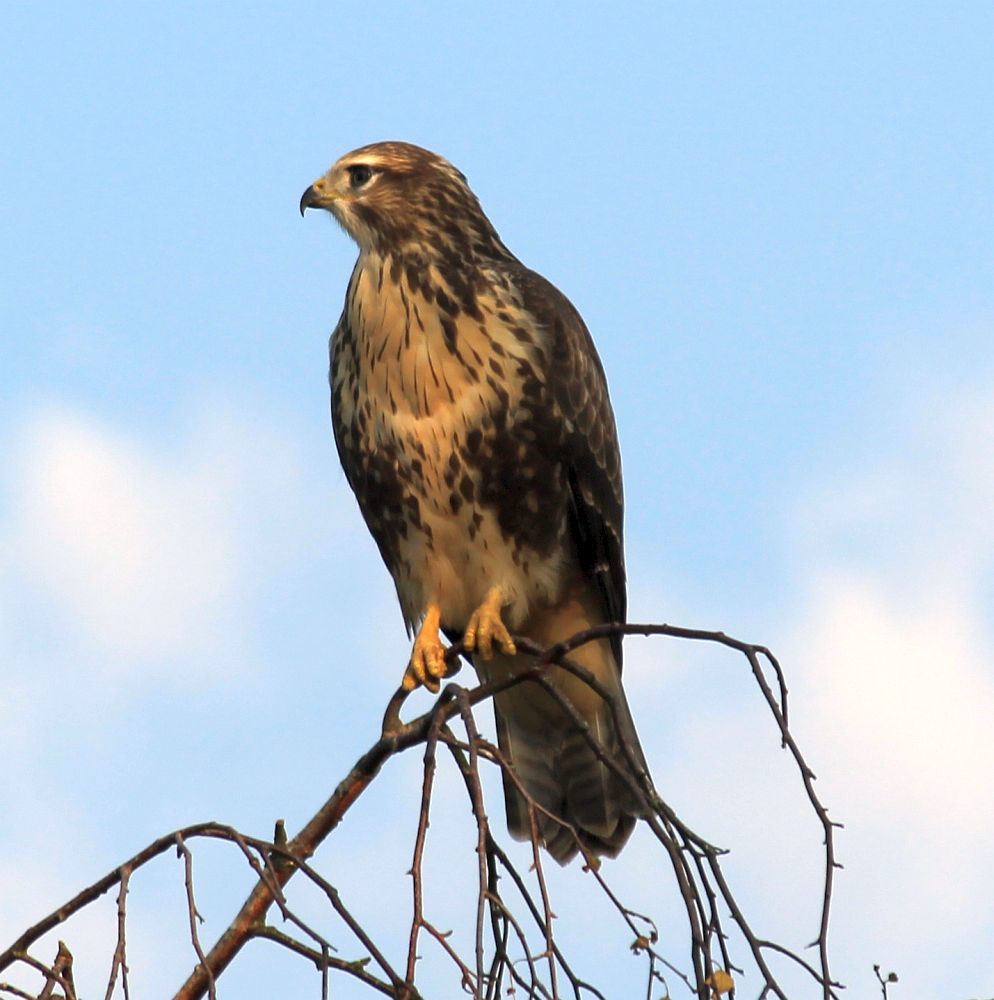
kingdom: Animalia
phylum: Chordata
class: Aves
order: Accipitriformes
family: Accipitridae
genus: Buteo
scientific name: Buteo buteo
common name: Common buzzard
